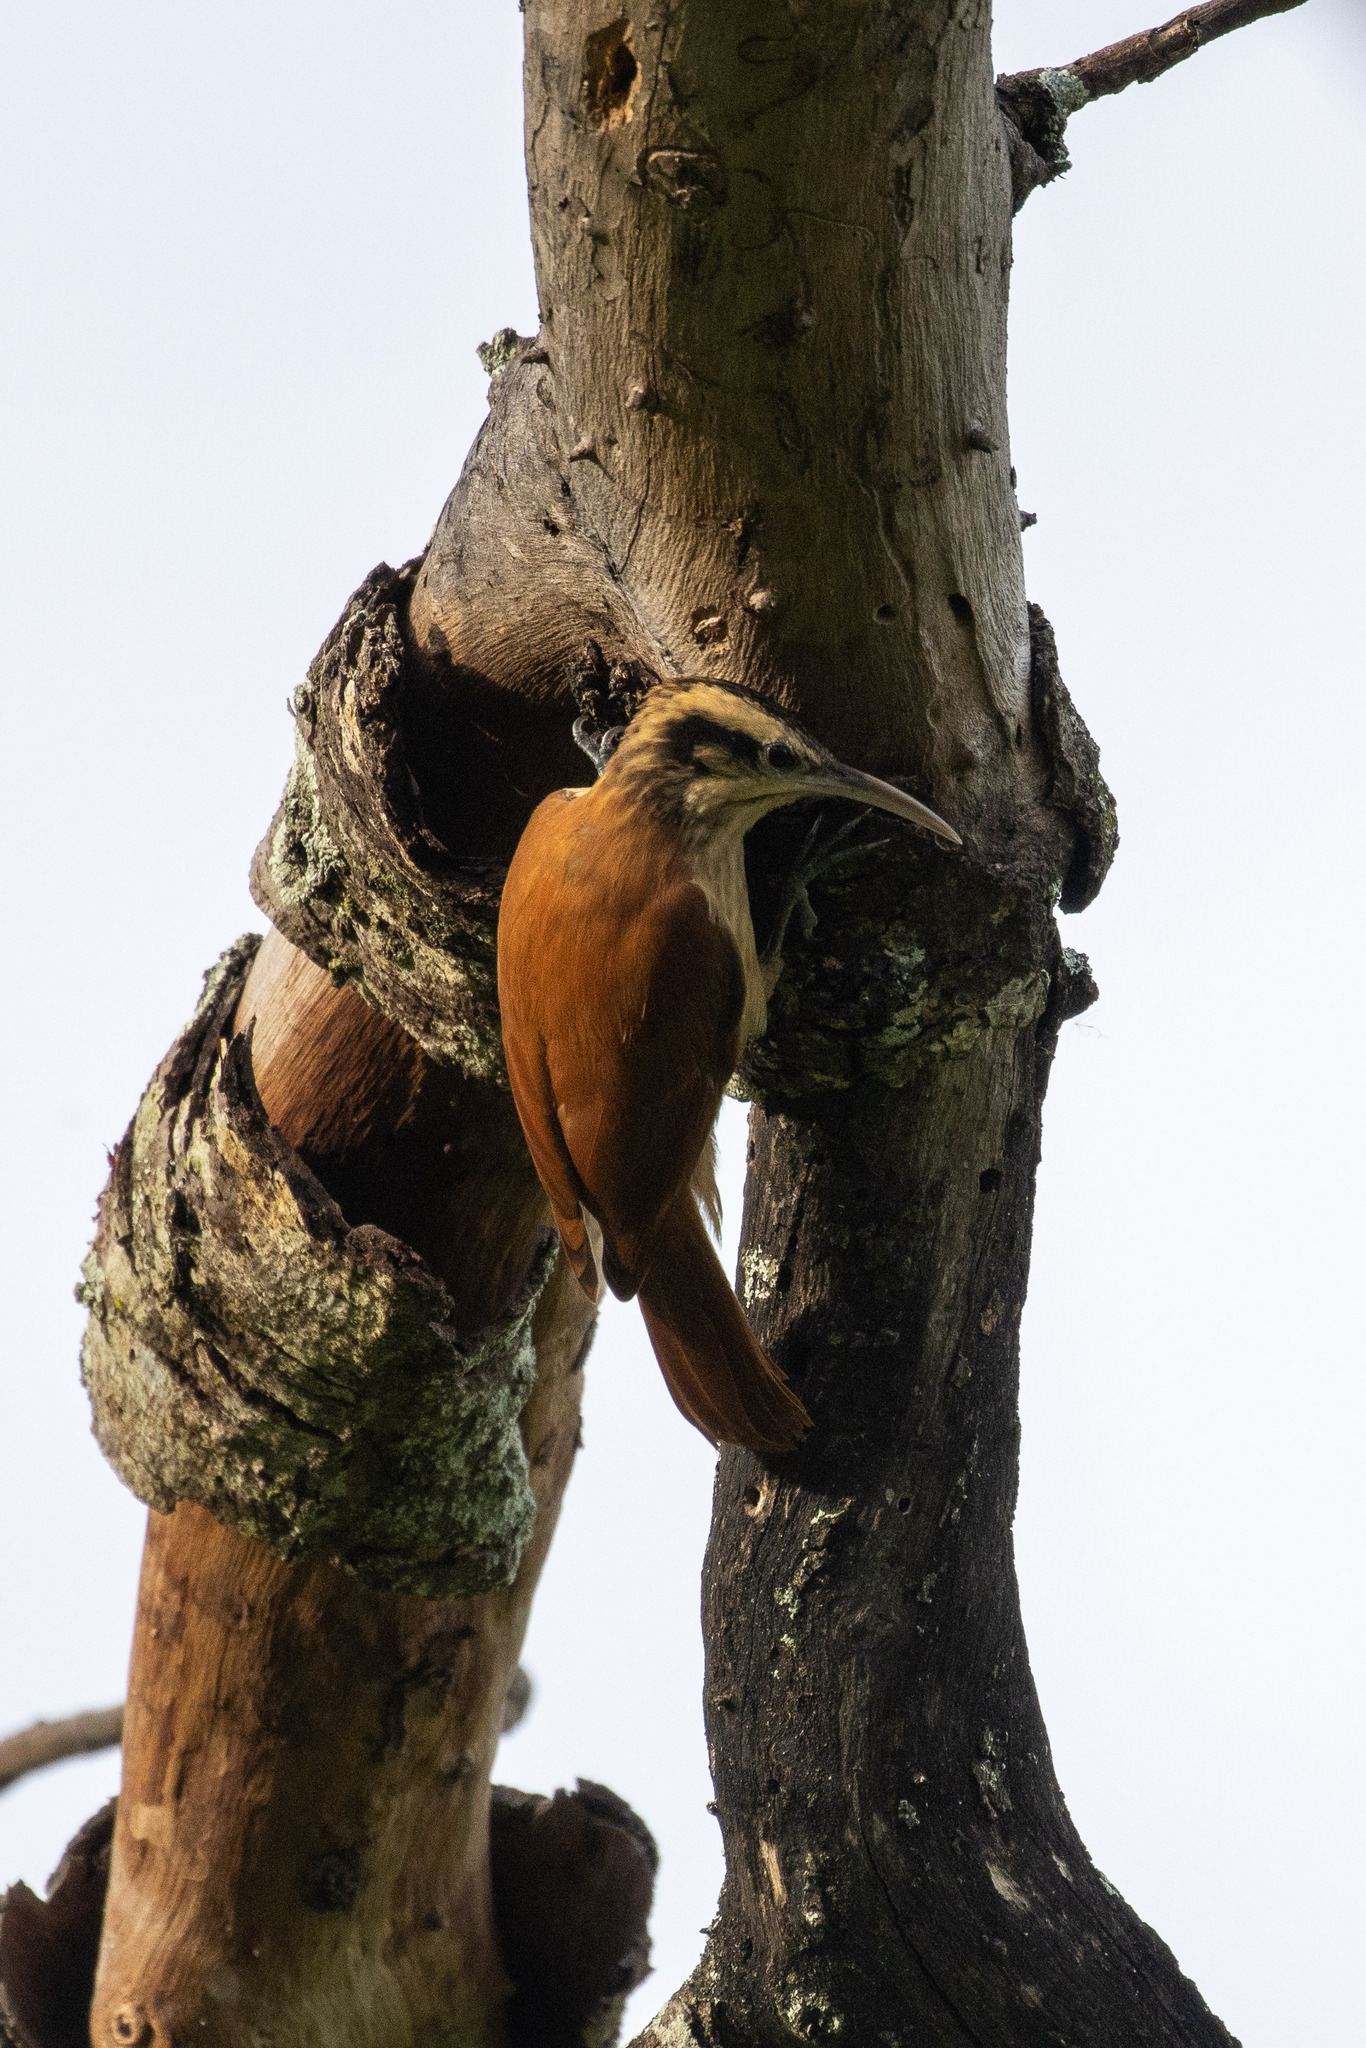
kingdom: Animalia
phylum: Chordata
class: Aves
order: Passeriformes
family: Furnariidae
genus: Lepidocolaptes
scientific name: Lepidocolaptes angustirostris
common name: Narrow-billed woodcreeper
